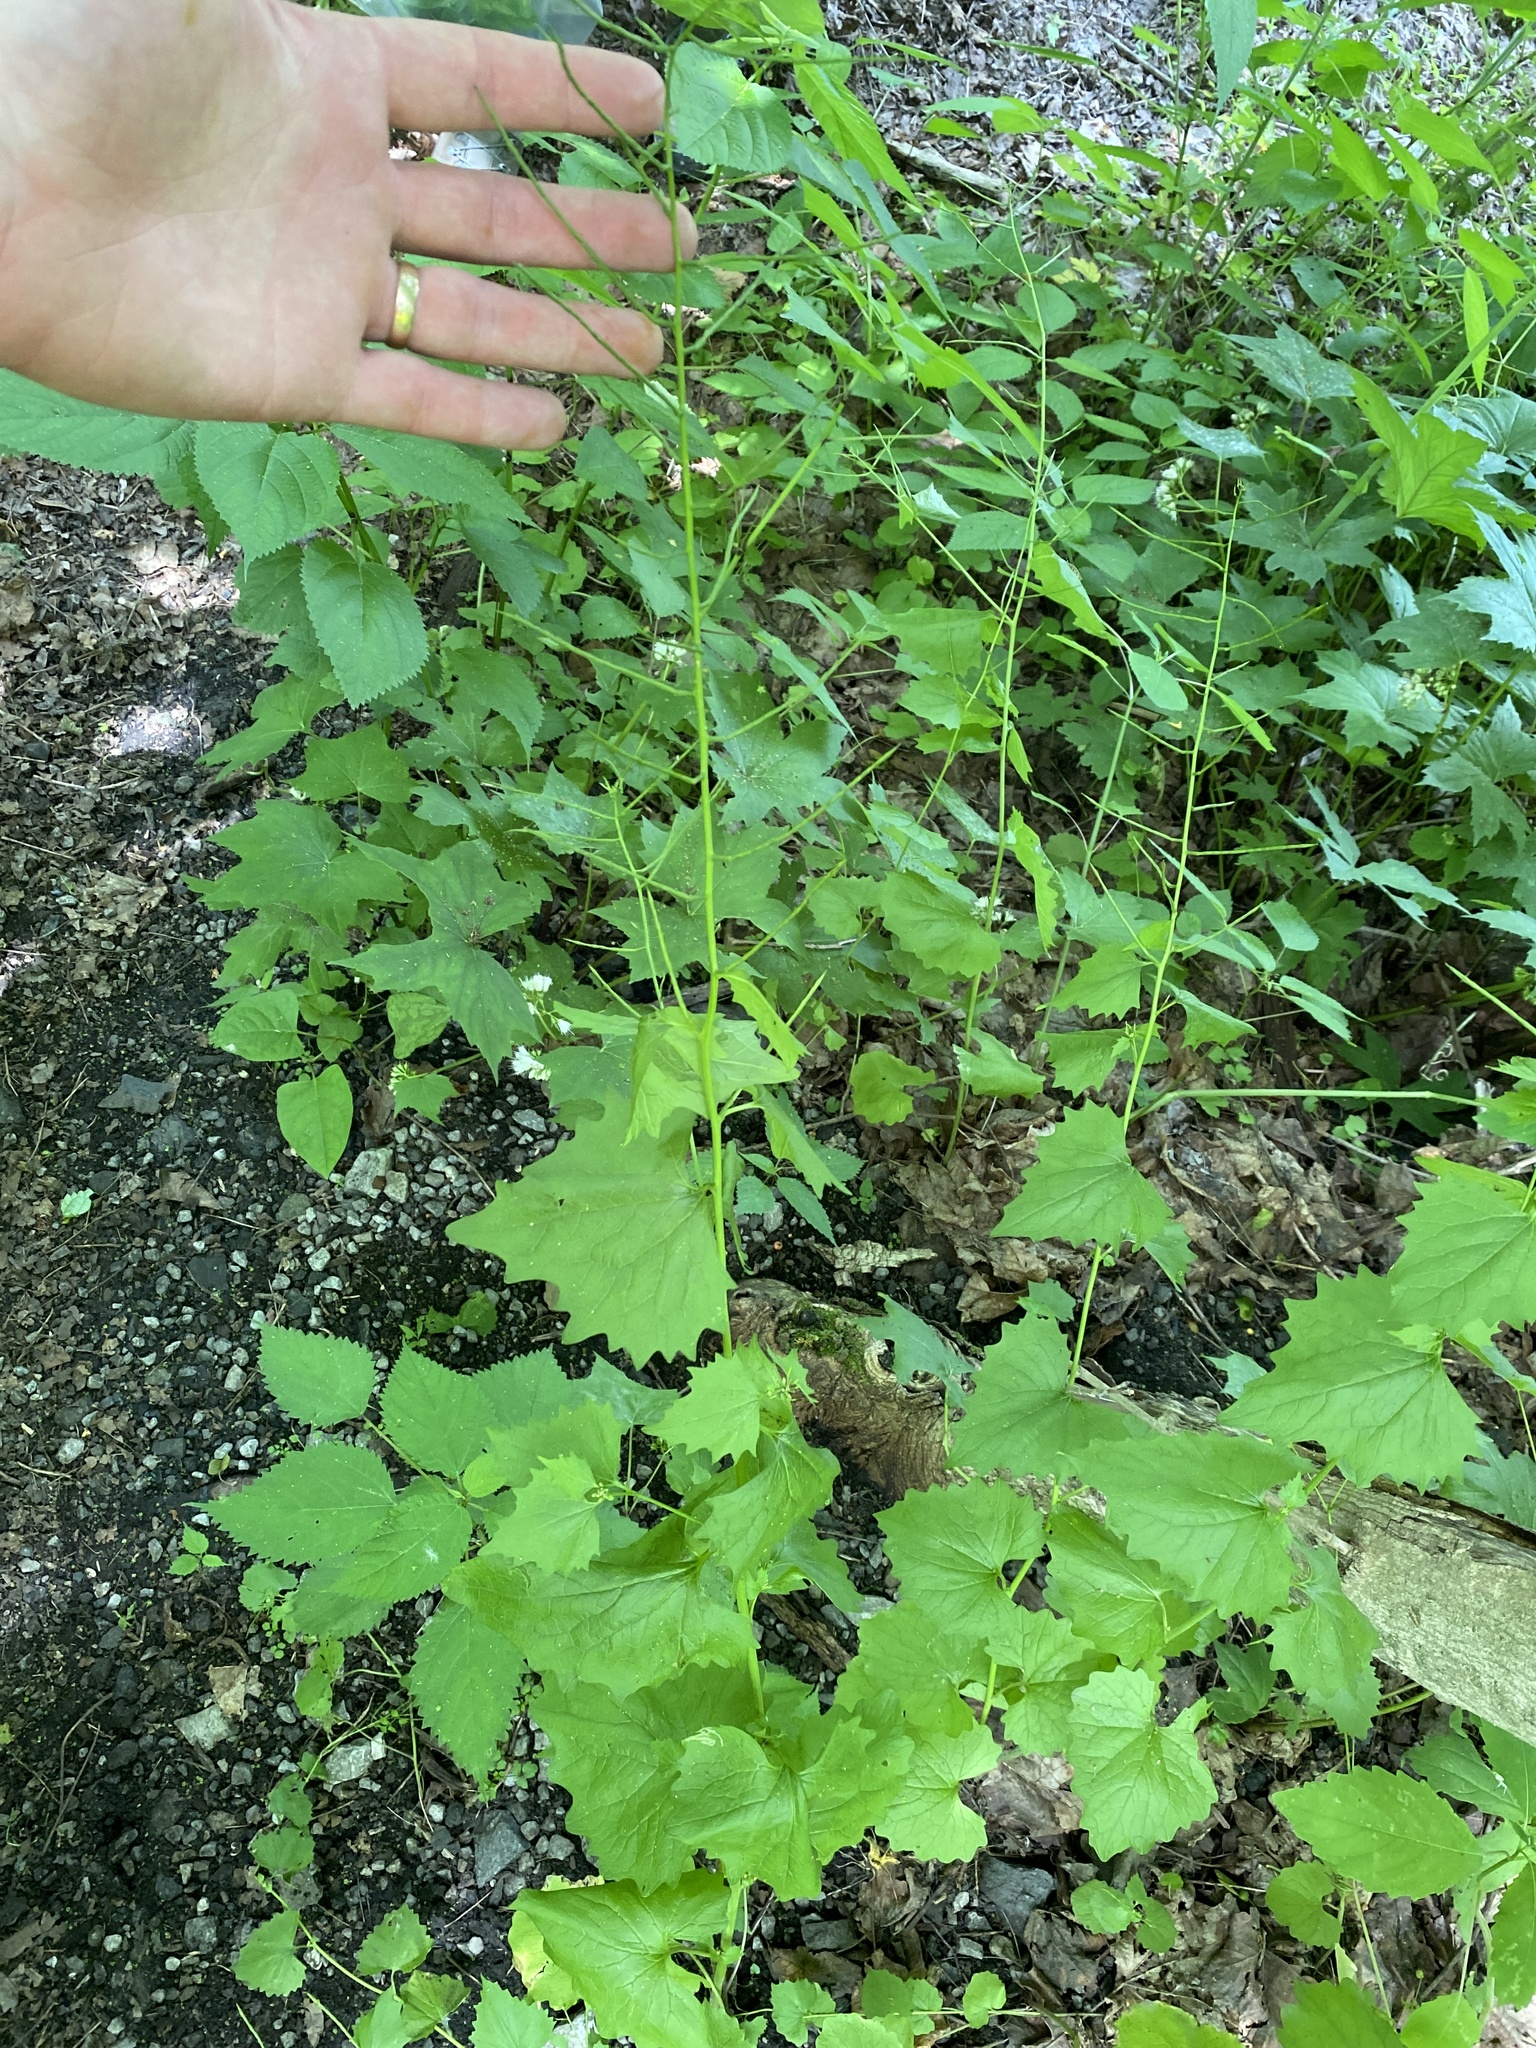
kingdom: Plantae
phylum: Tracheophyta
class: Magnoliopsida
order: Brassicales
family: Brassicaceae
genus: Alliaria
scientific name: Alliaria petiolata
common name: Garlic mustard
